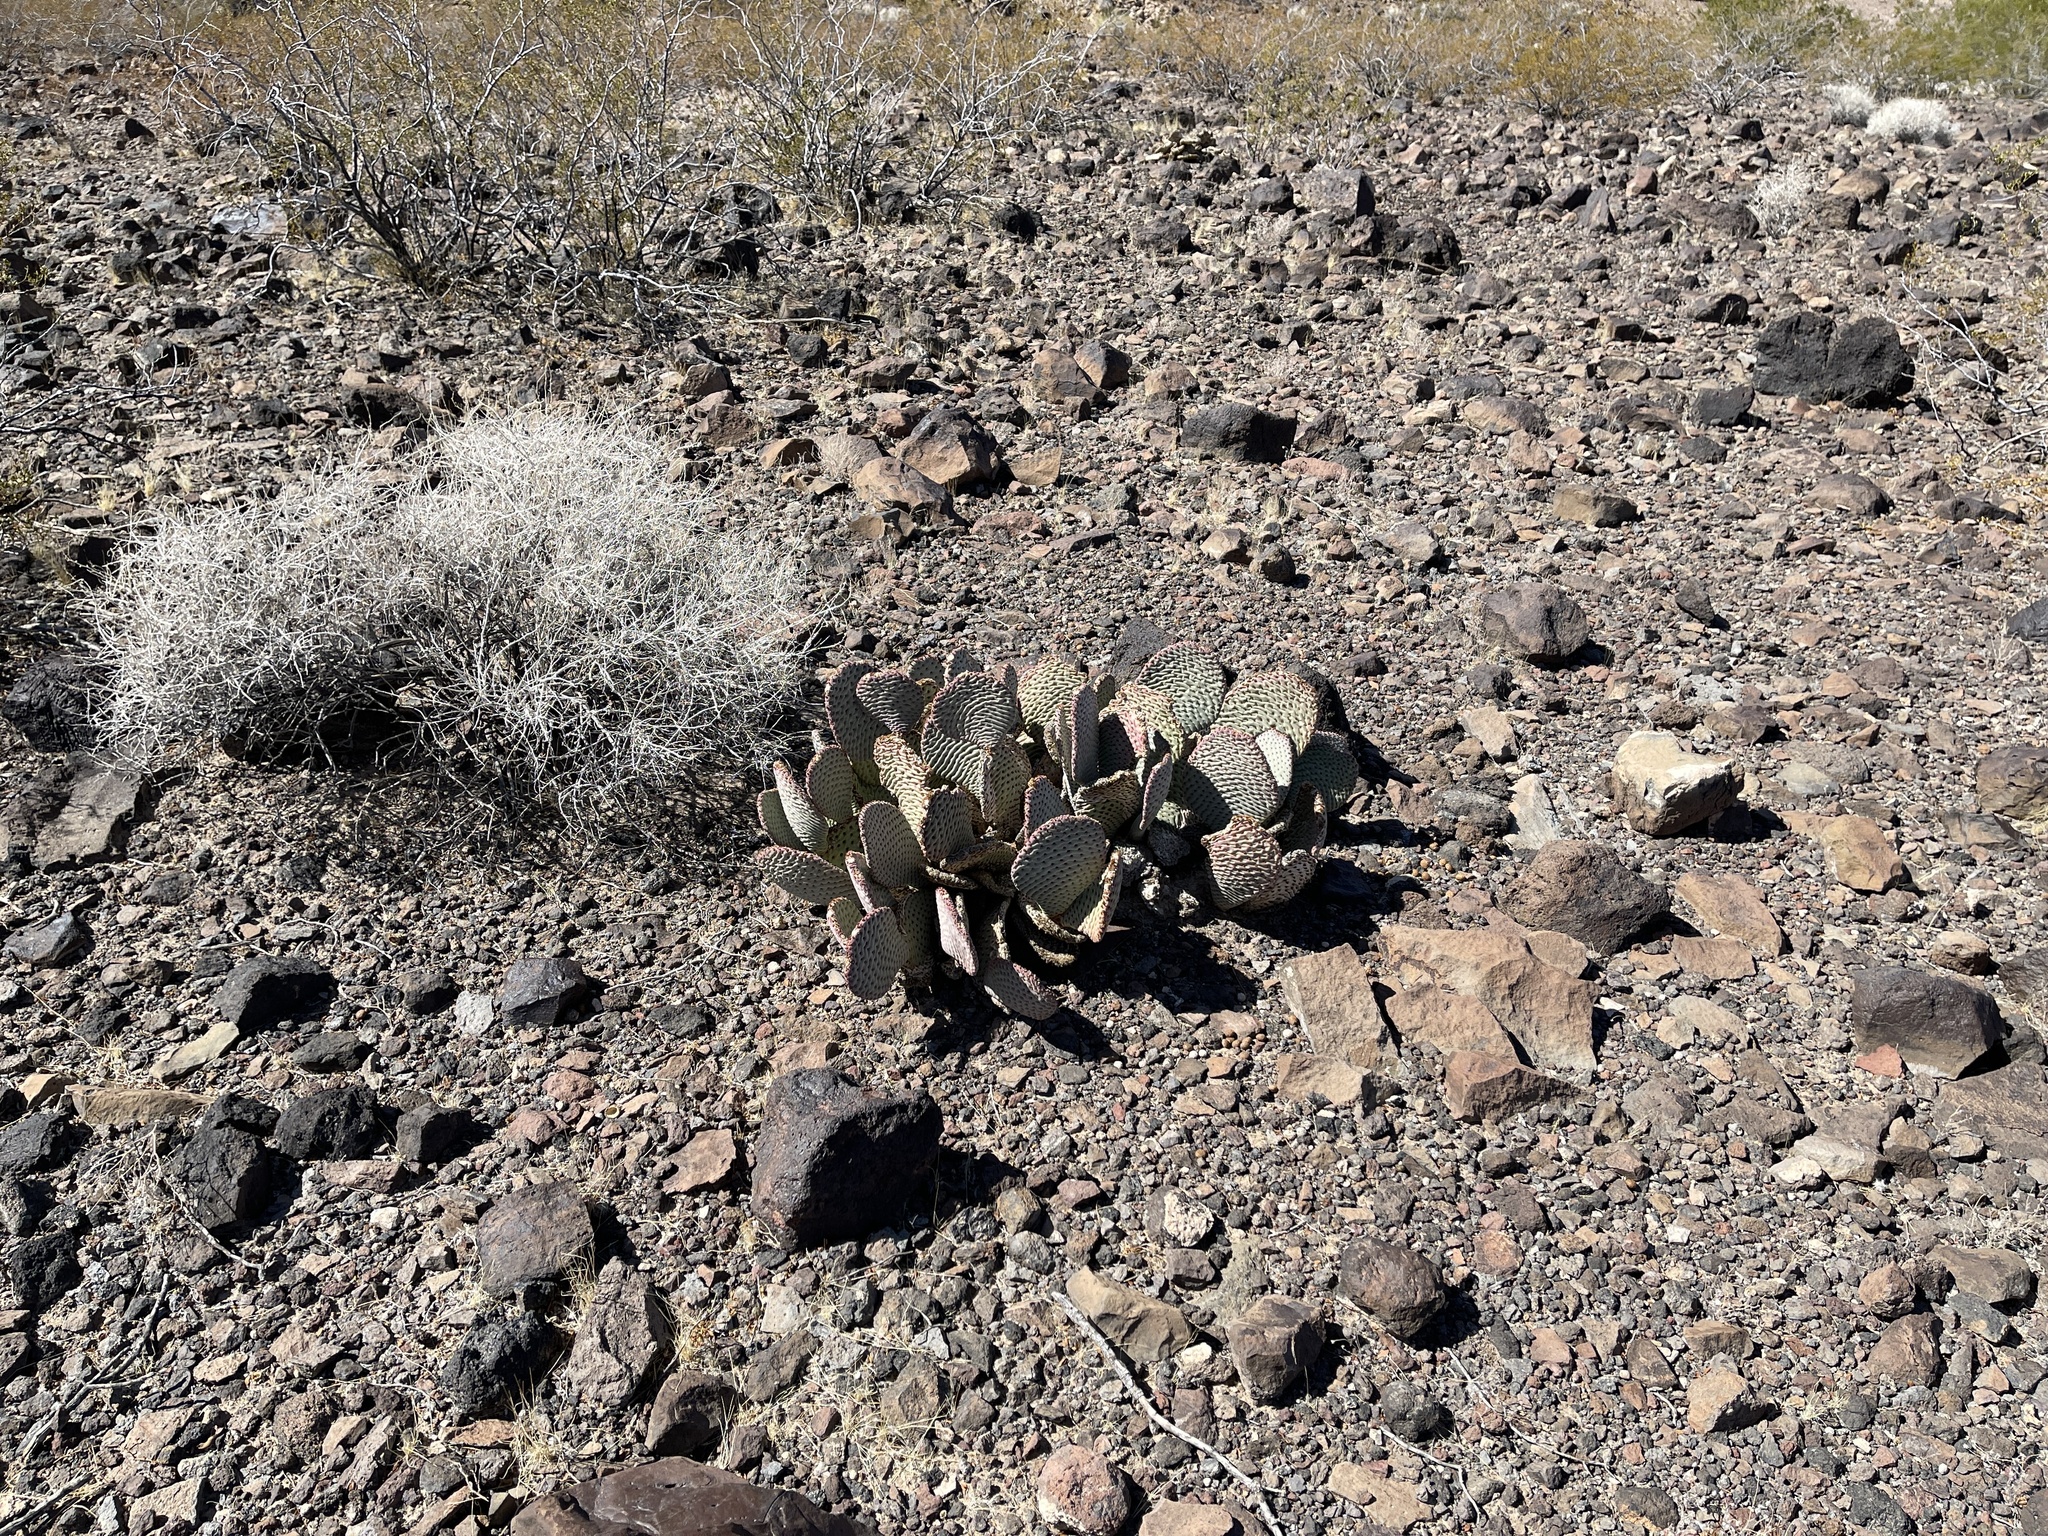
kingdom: Plantae
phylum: Tracheophyta
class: Magnoliopsida
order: Caryophyllales
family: Cactaceae
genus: Opuntia
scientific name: Opuntia basilaris
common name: Beavertail prickly-pear
